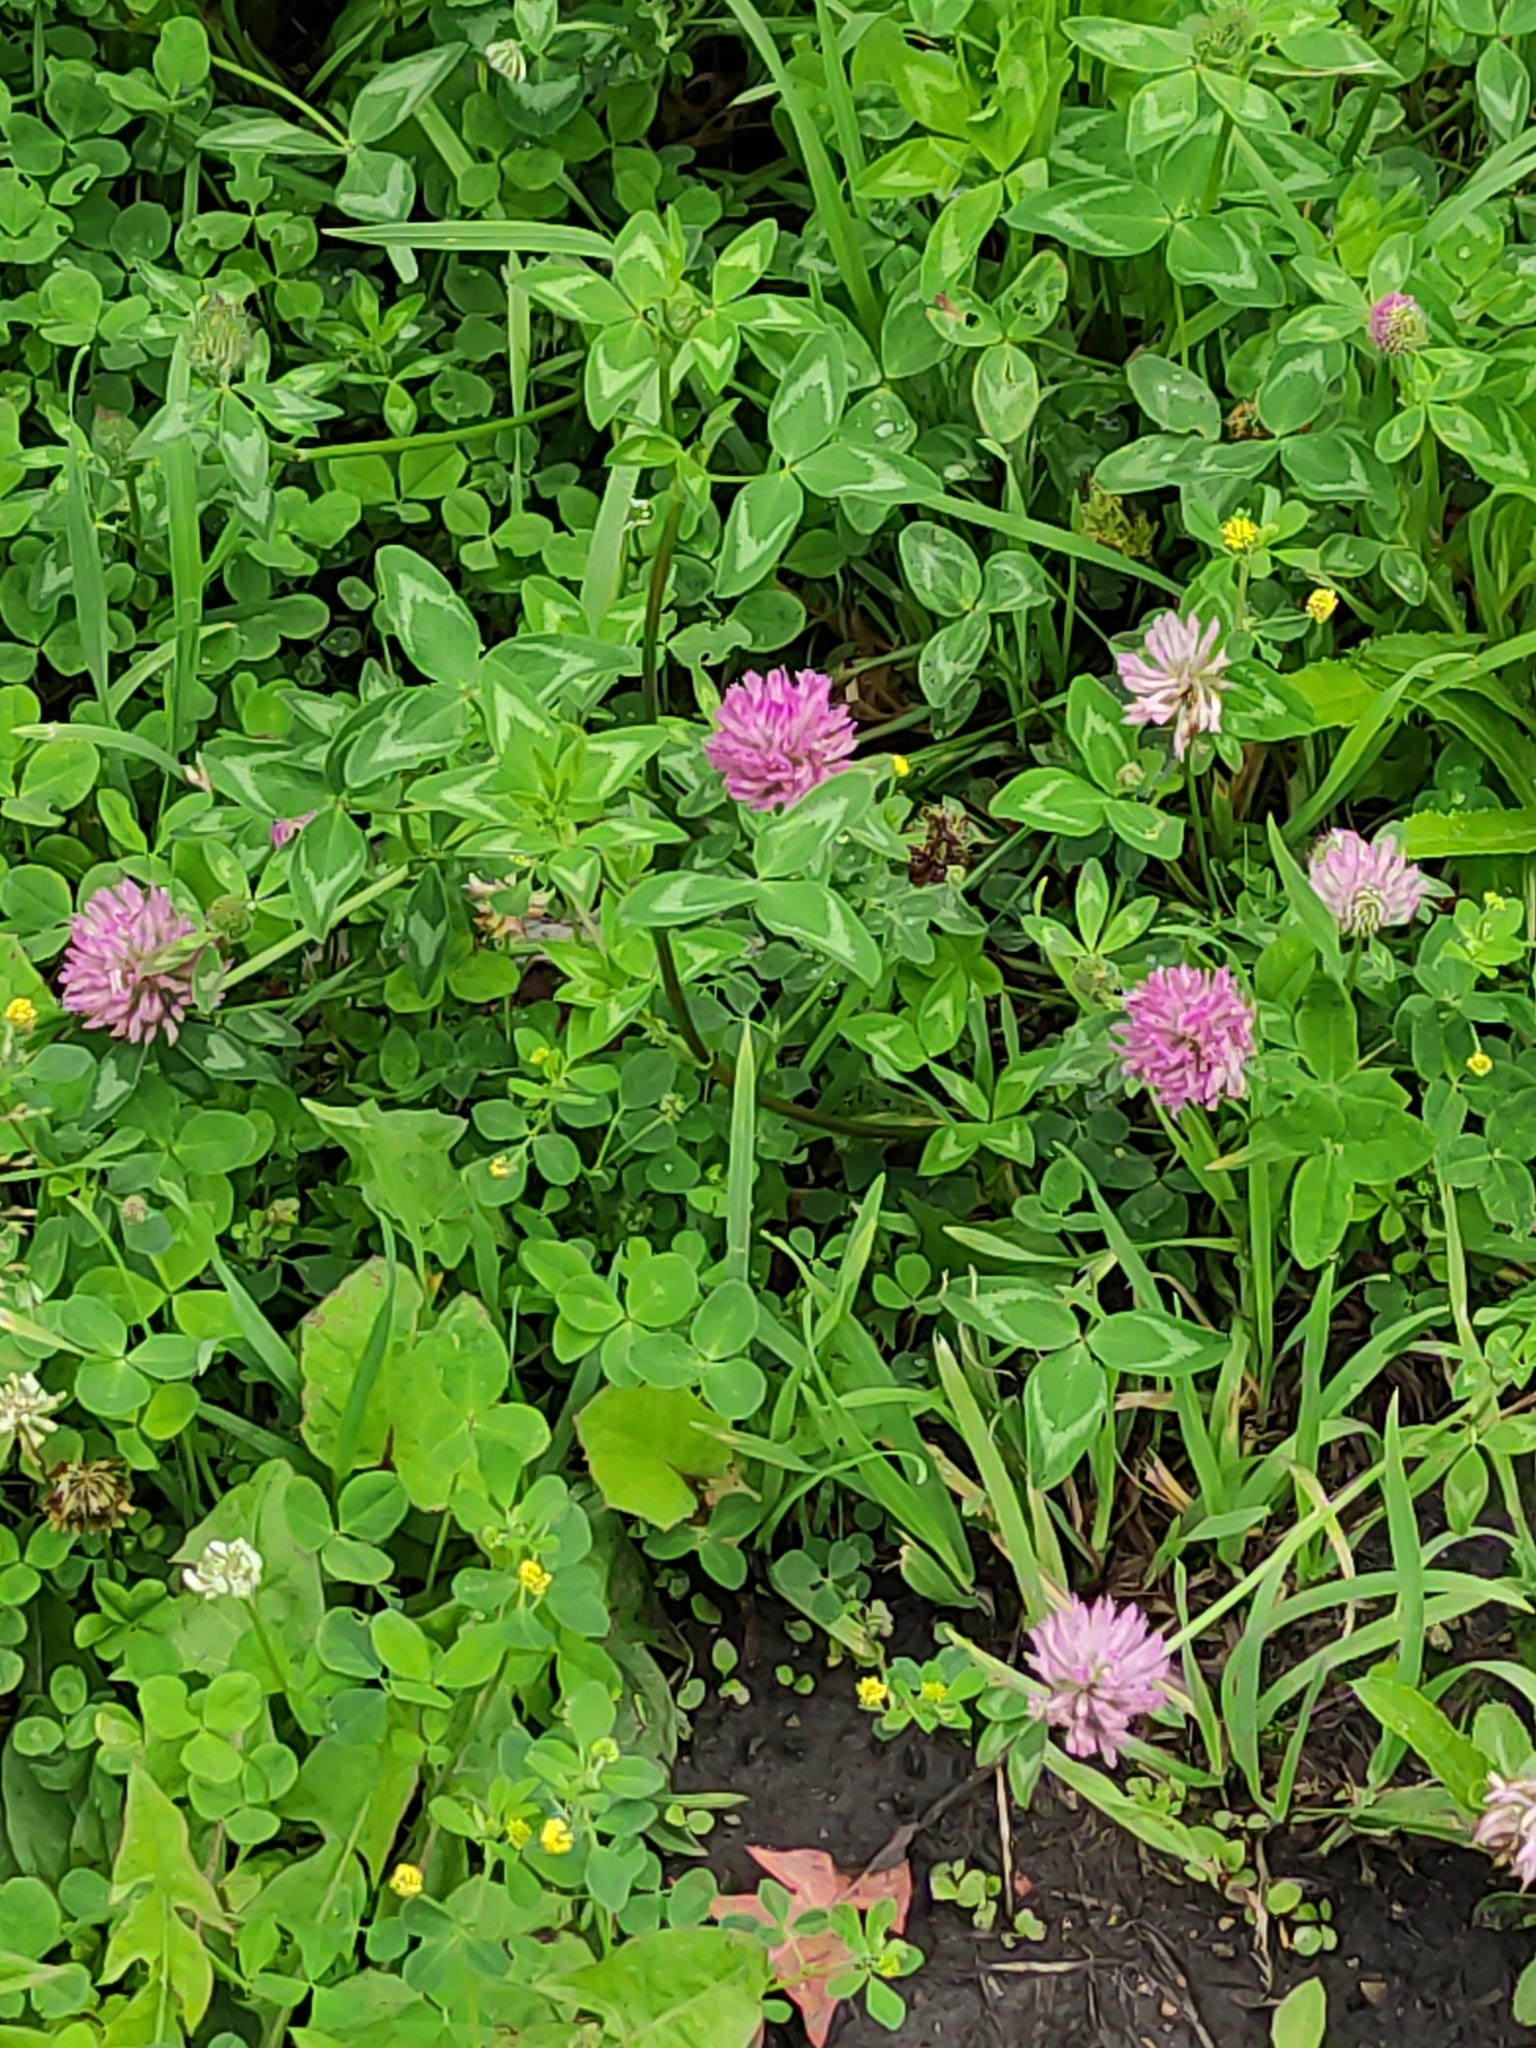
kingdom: Plantae
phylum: Tracheophyta
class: Magnoliopsida
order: Fabales
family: Fabaceae
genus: Trifolium
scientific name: Trifolium pratense
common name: Red clover
